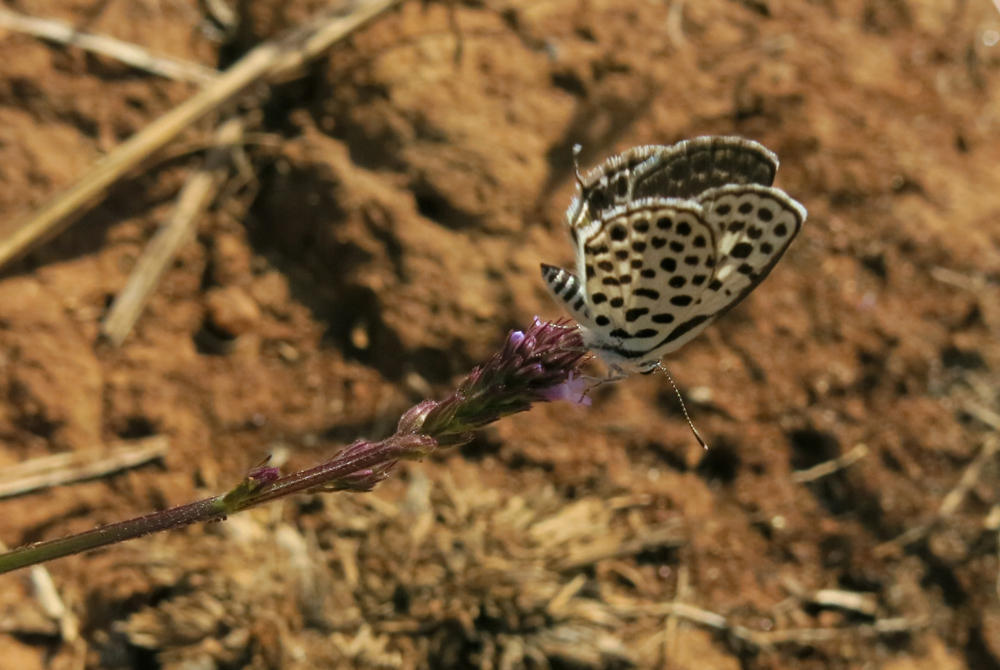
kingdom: Animalia
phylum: Arthropoda
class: Insecta
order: Lepidoptera
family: Lycaenidae
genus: Tarucus
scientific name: Tarucus sybaris
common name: Dotted blue
